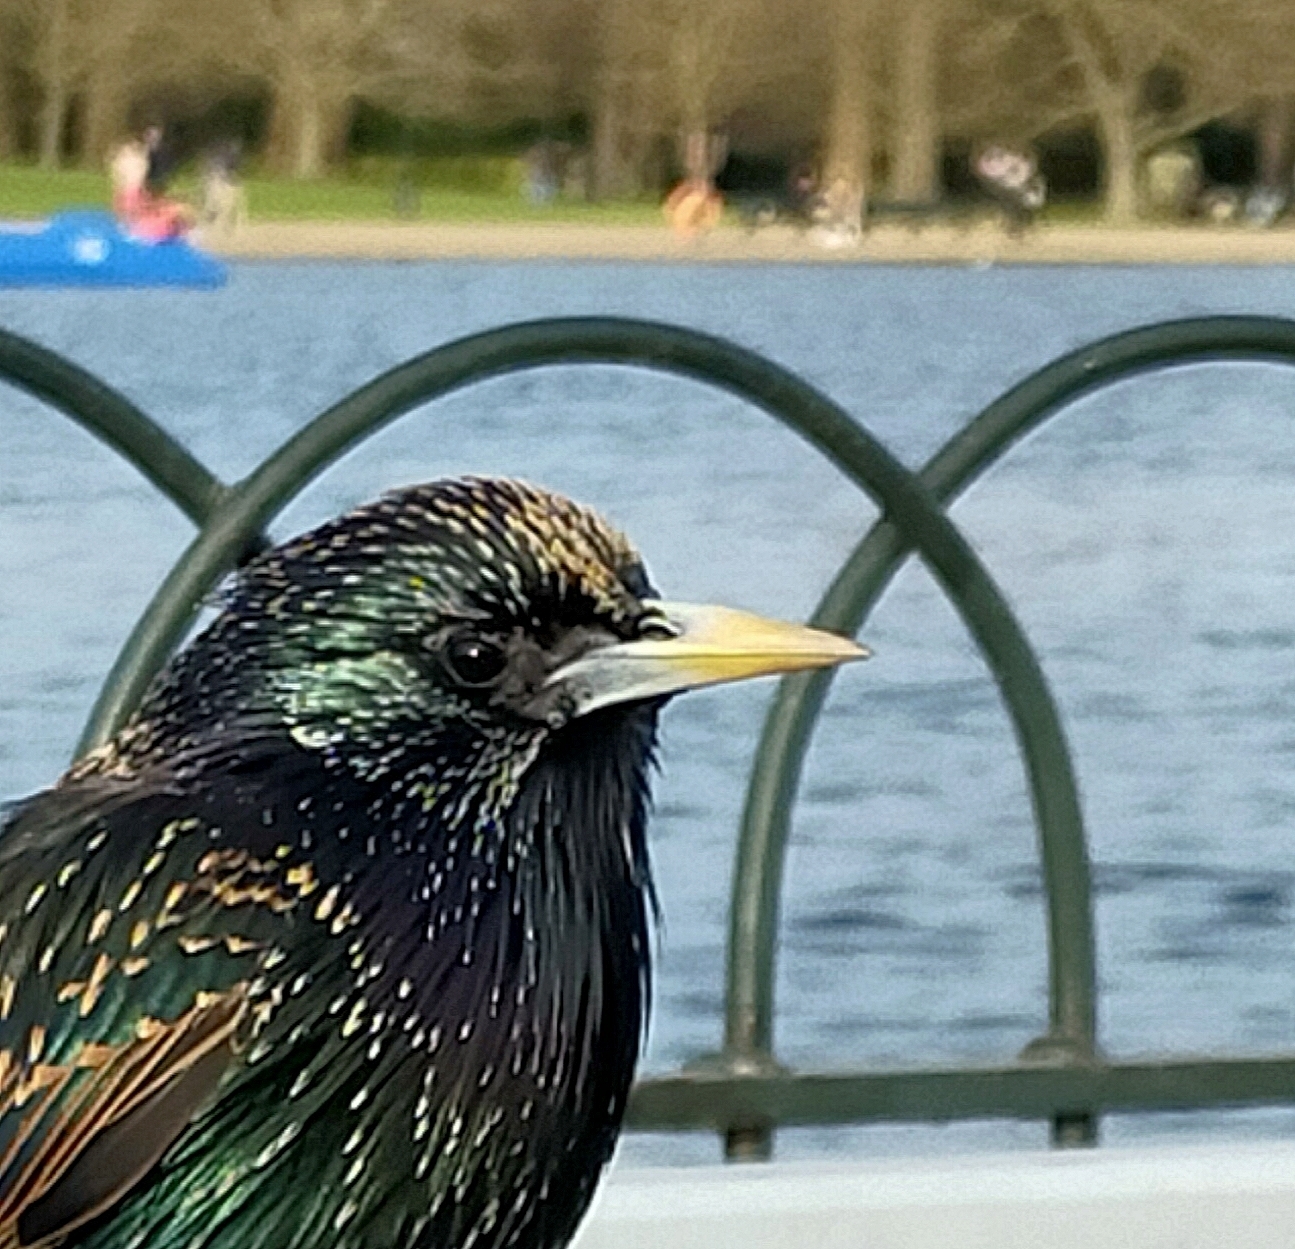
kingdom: Animalia
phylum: Chordata
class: Aves
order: Passeriformes
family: Sturnidae
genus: Sturnus
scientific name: Sturnus vulgaris
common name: Common starling
